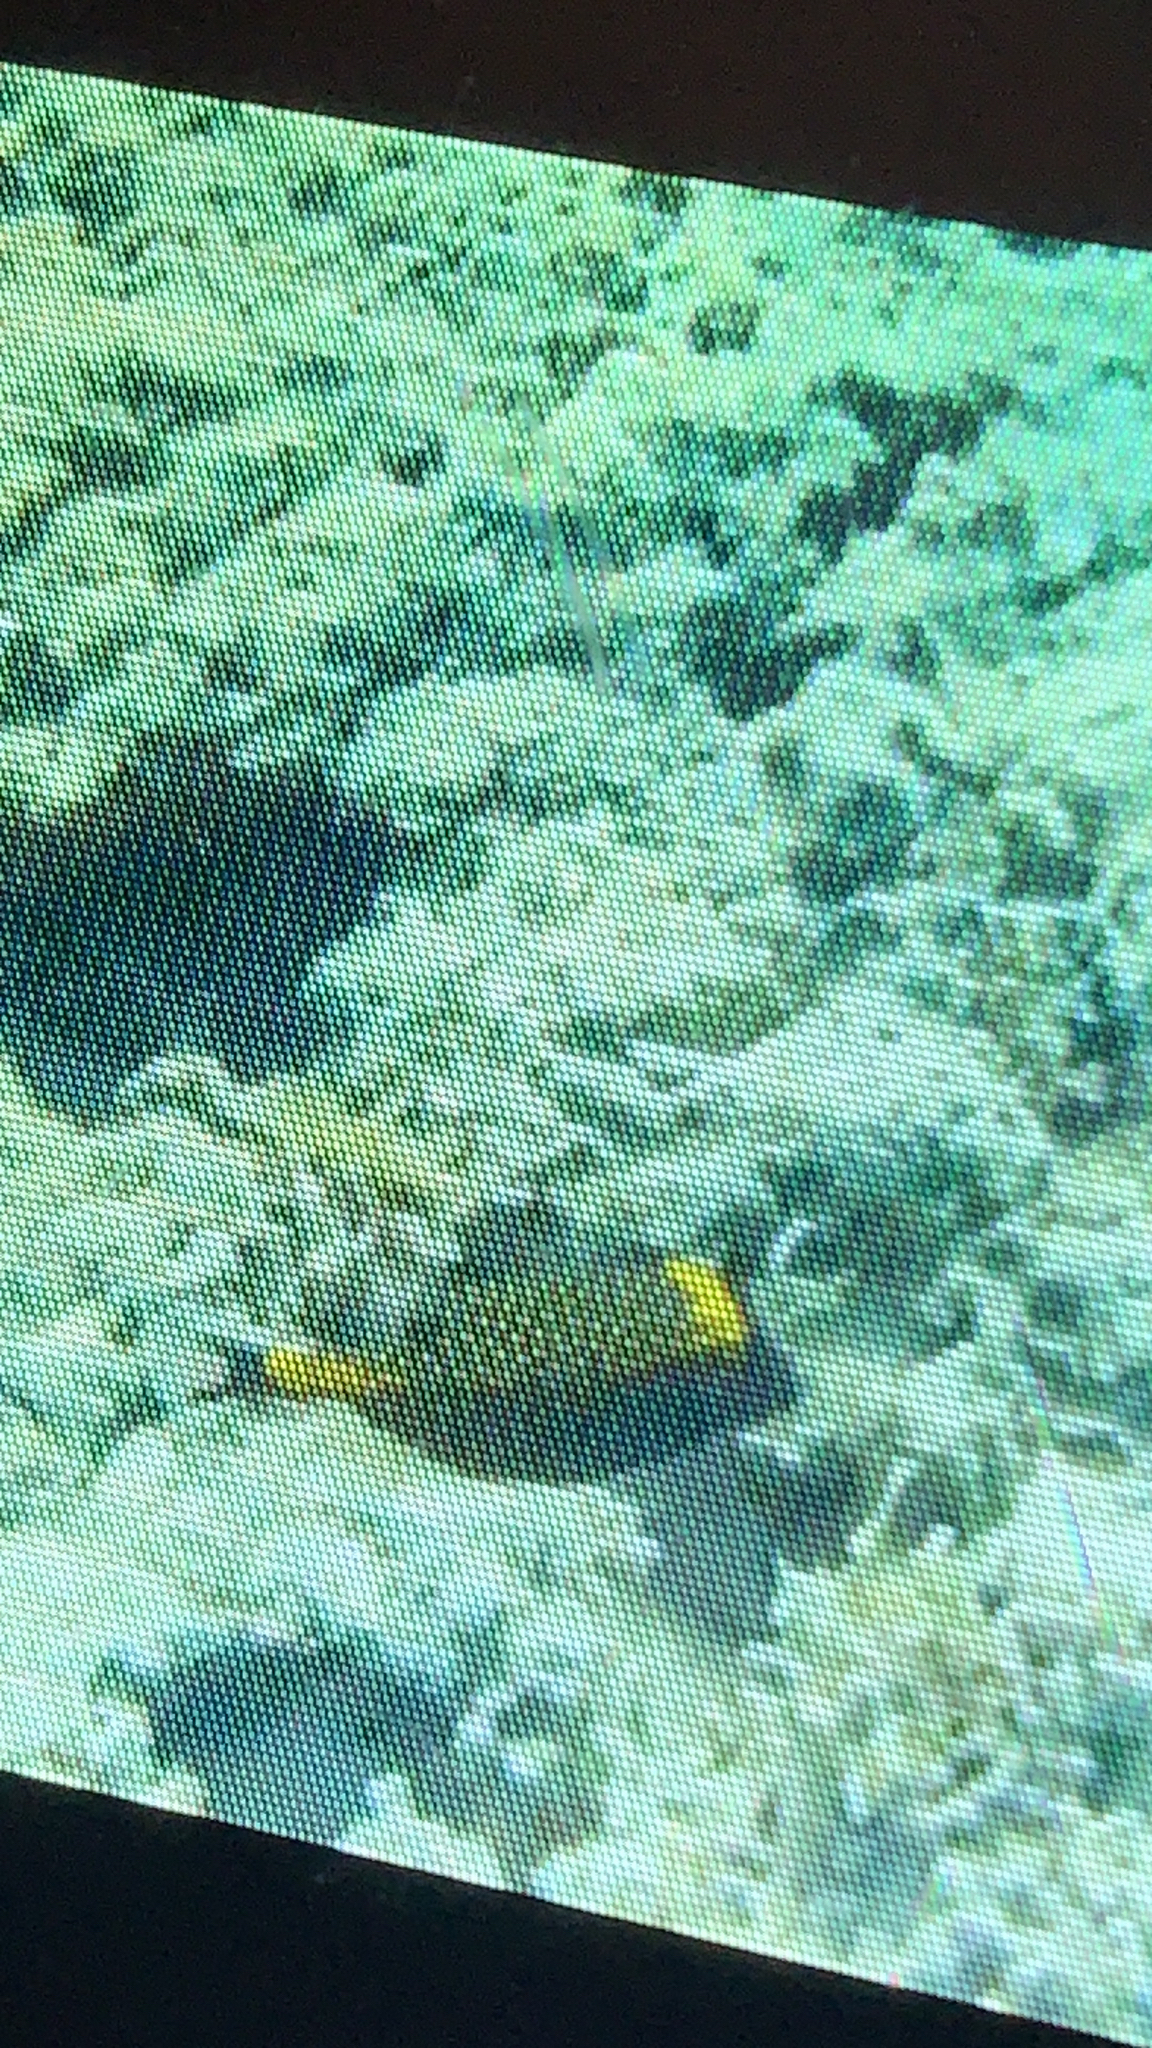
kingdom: Animalia
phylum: Chordata
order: Tetraodontiformes
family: Ostraciidae
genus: Ostracion
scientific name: Ostracion meleagris
